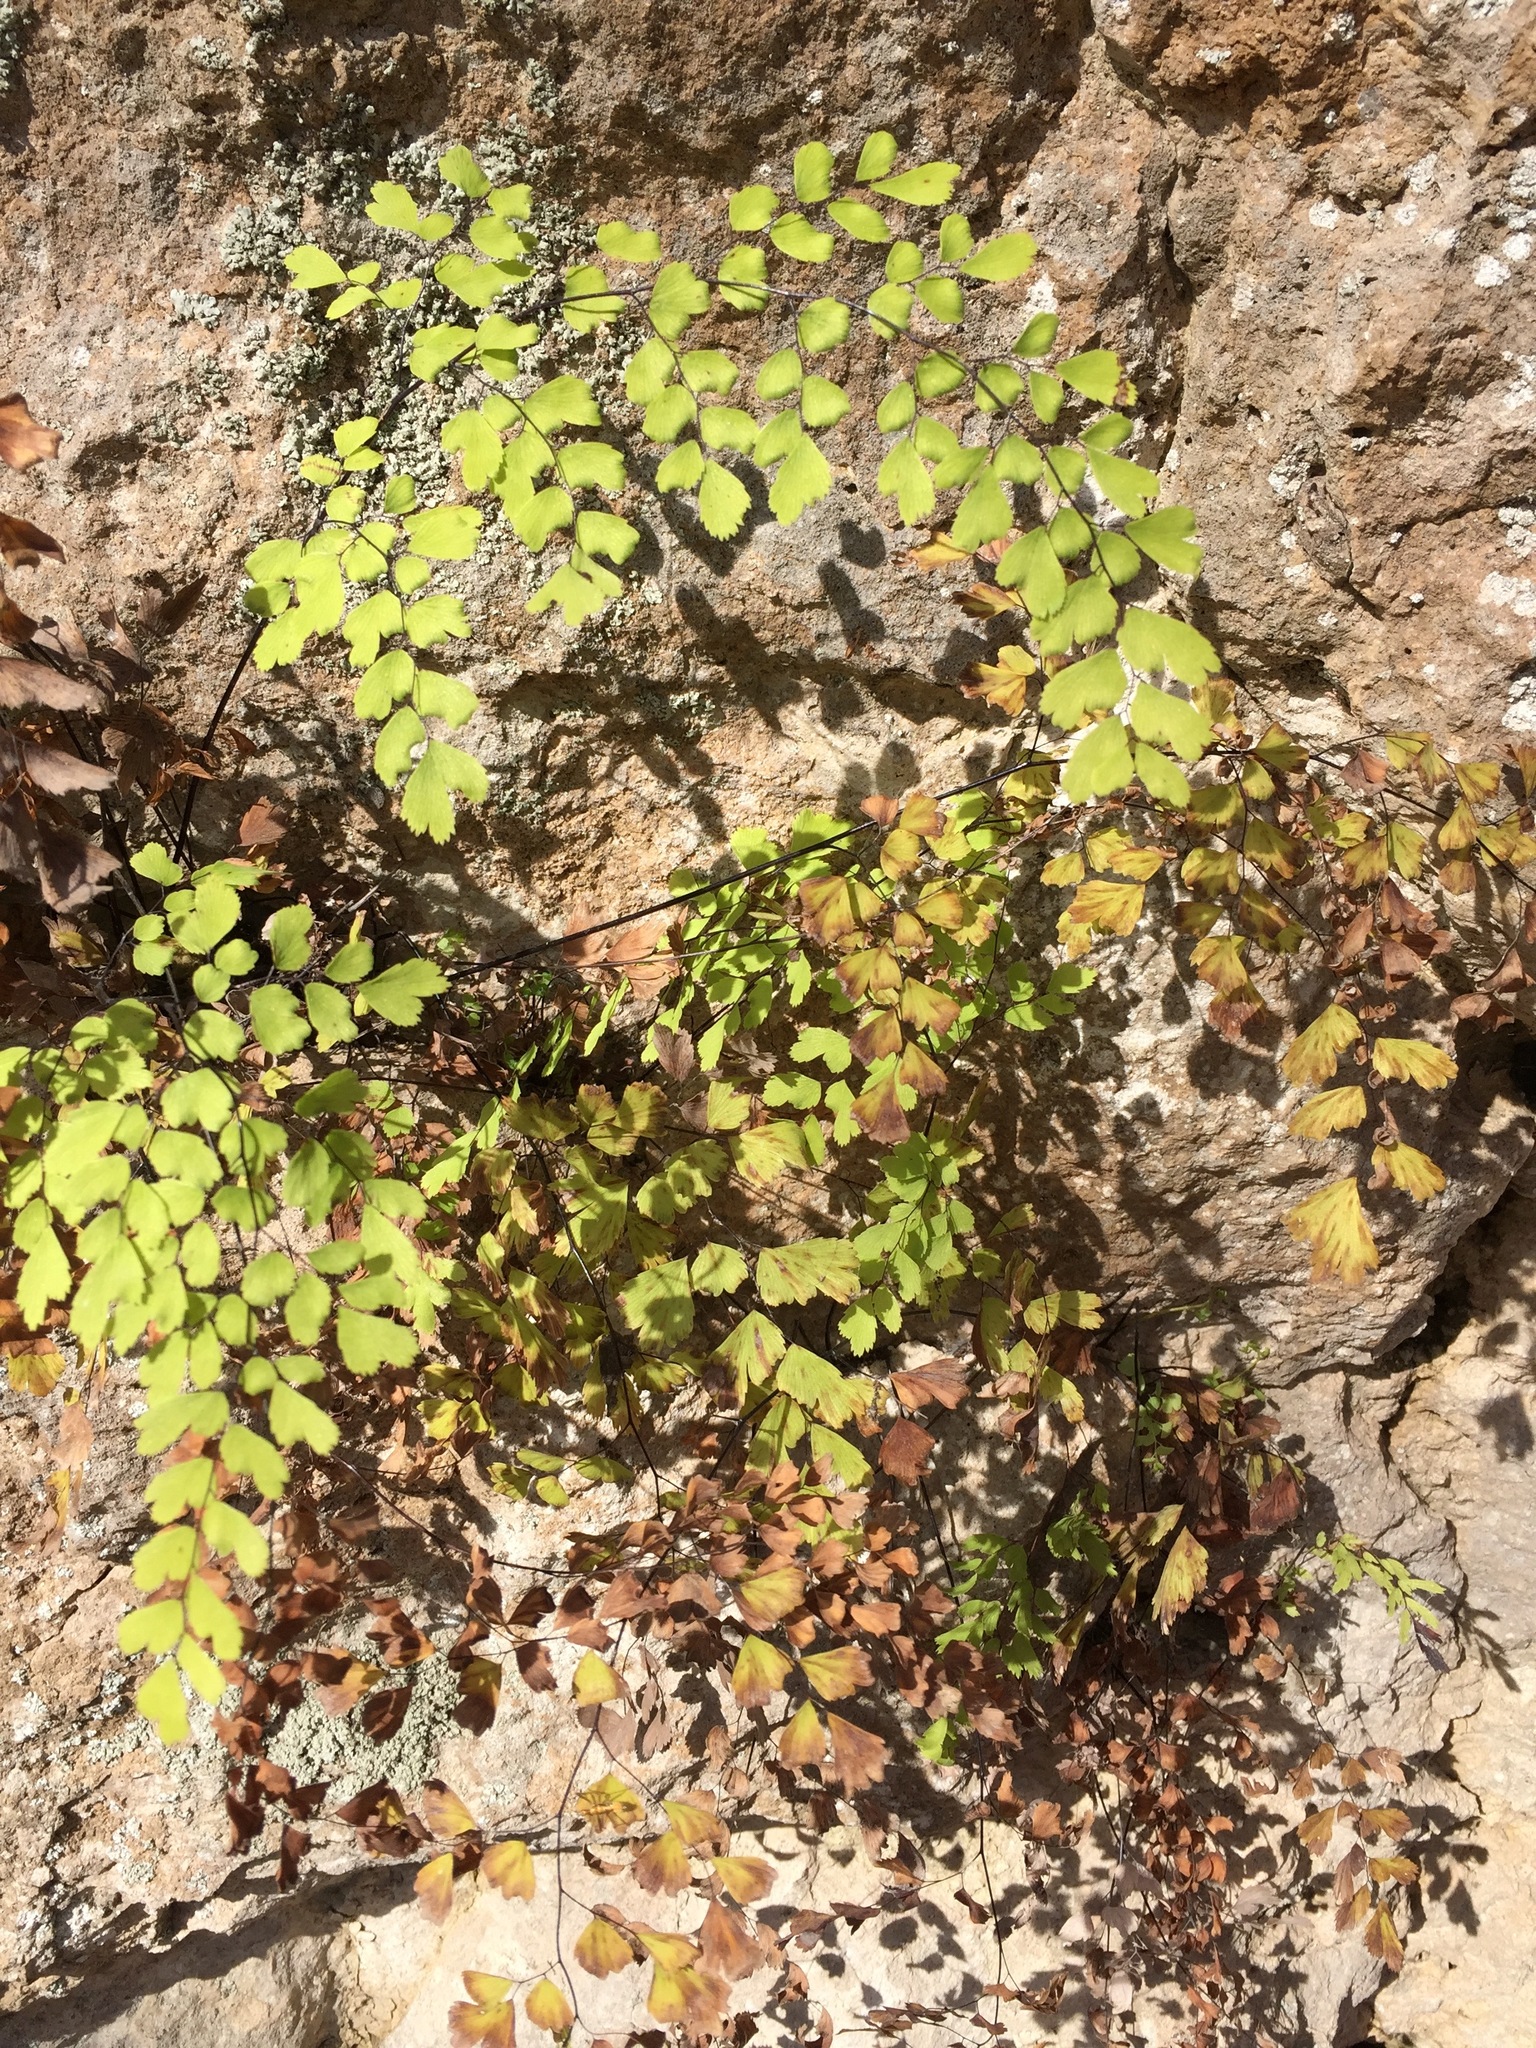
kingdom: Plantae
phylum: Tracheophyta
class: Polypodiopsida
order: Polypodiales
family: Pteridaceae
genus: Adiantum
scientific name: Adiantum capillus-veneris
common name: Maidenhair fern
